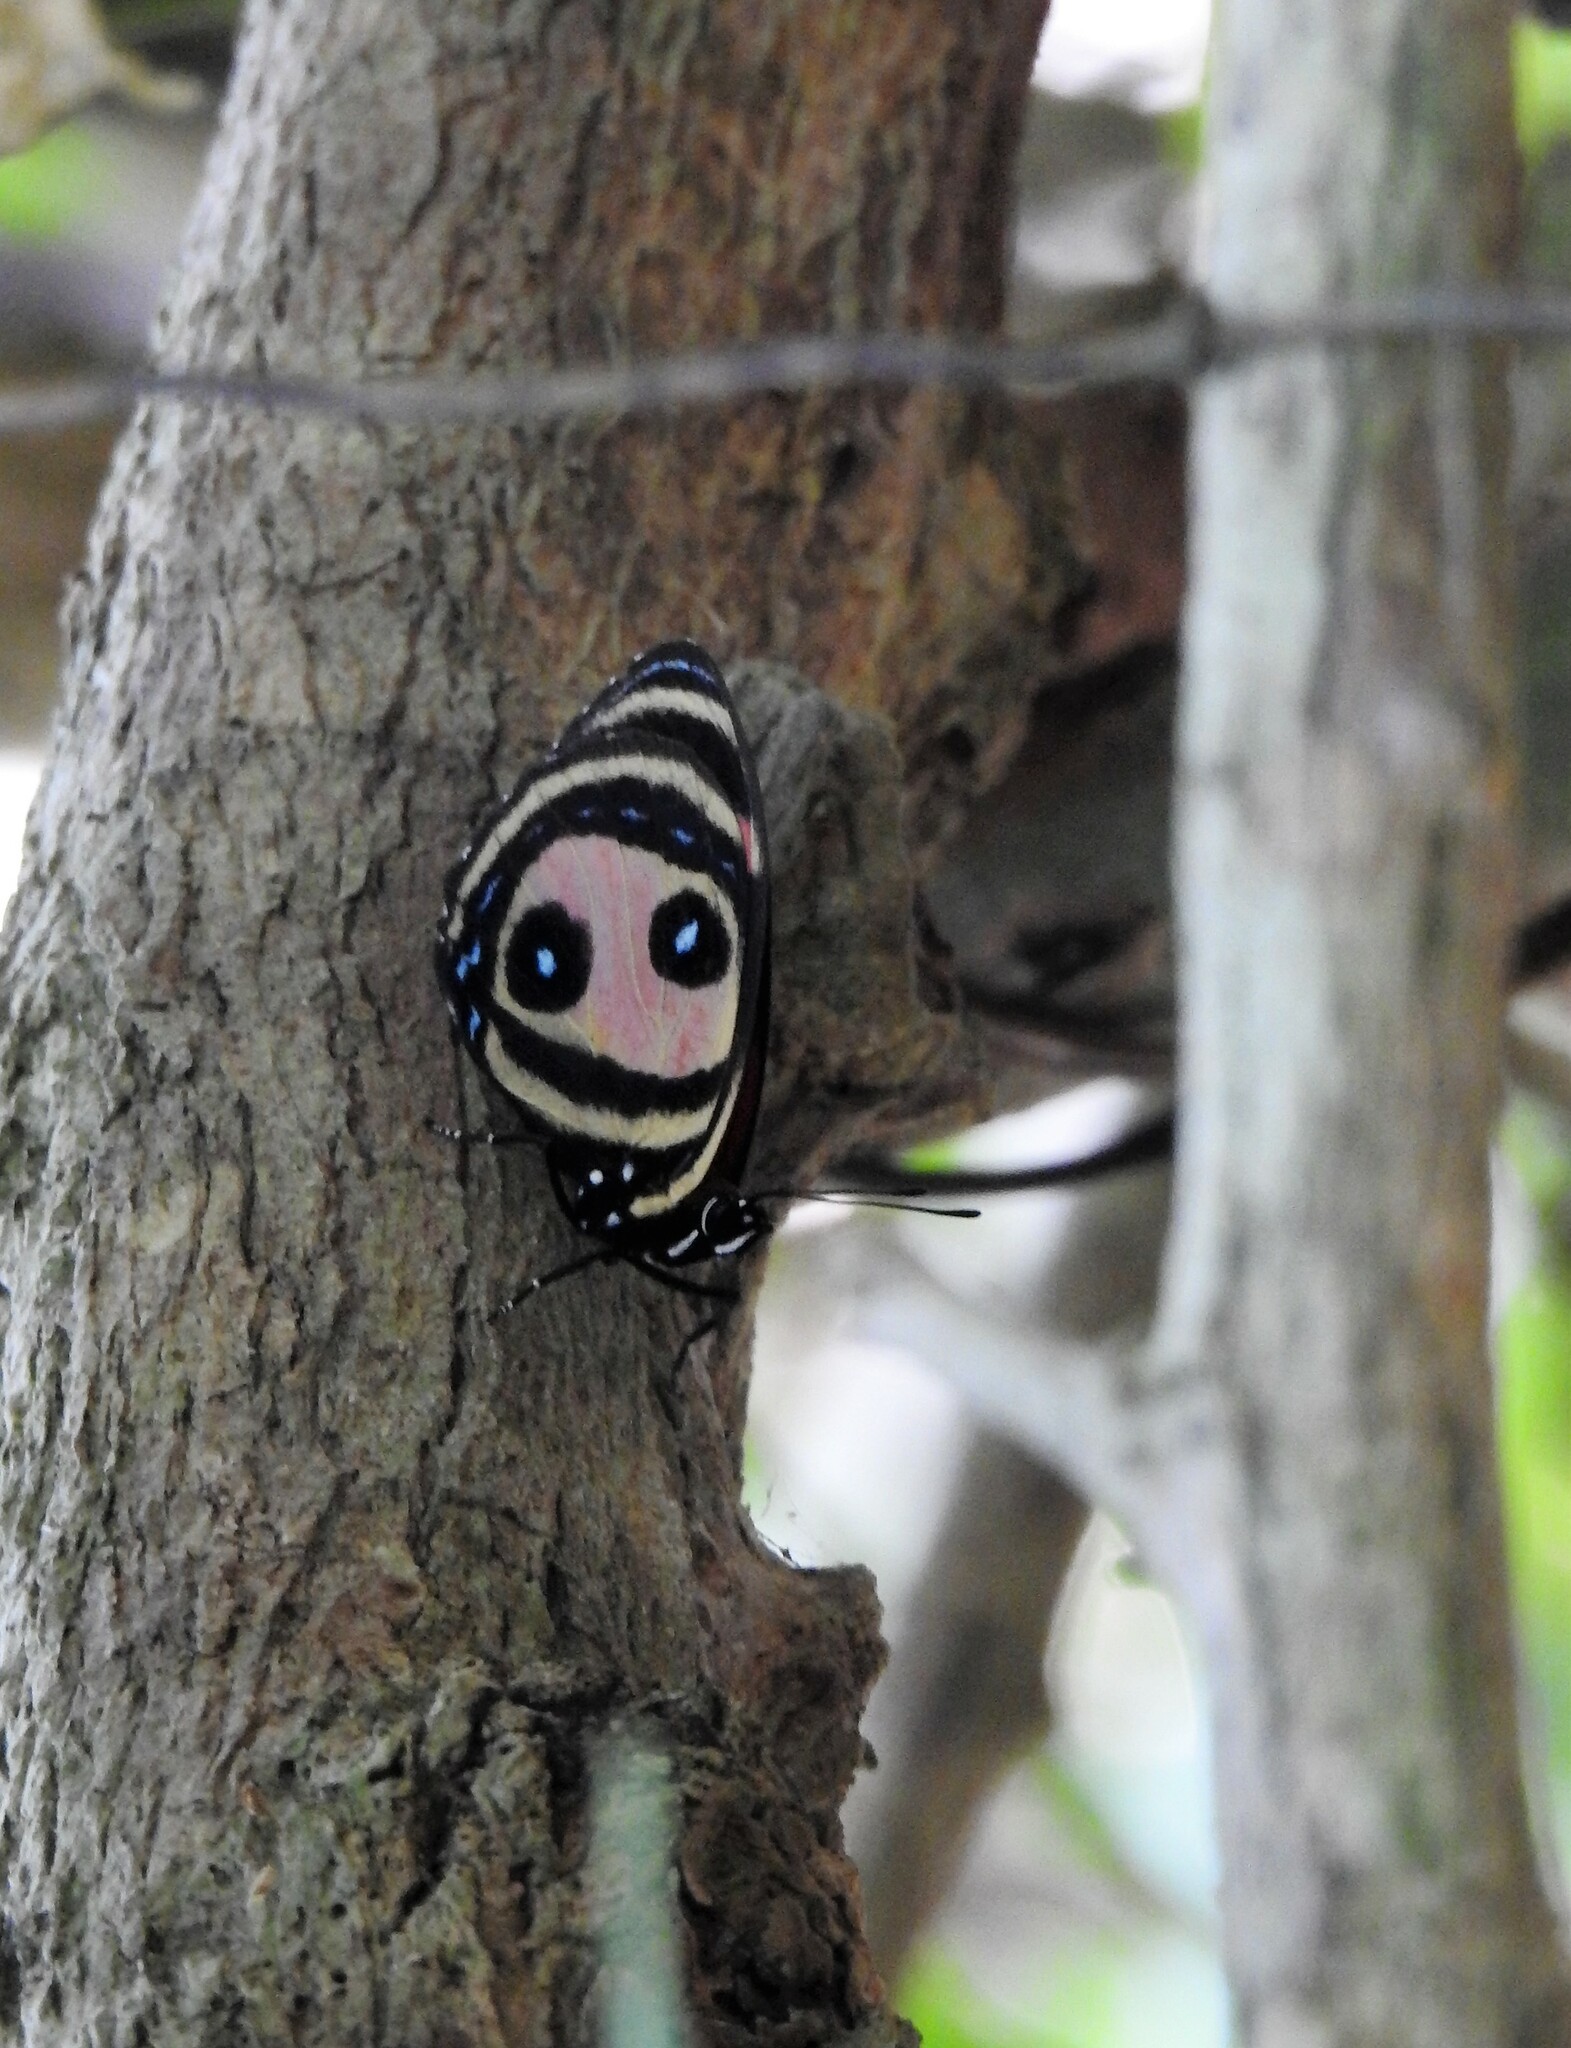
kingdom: Animalia
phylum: Arthropoda
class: Insecta
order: Lepidoptera
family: Nymphalidae
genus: Catagramma
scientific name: Catagramma Callicore pitheas
